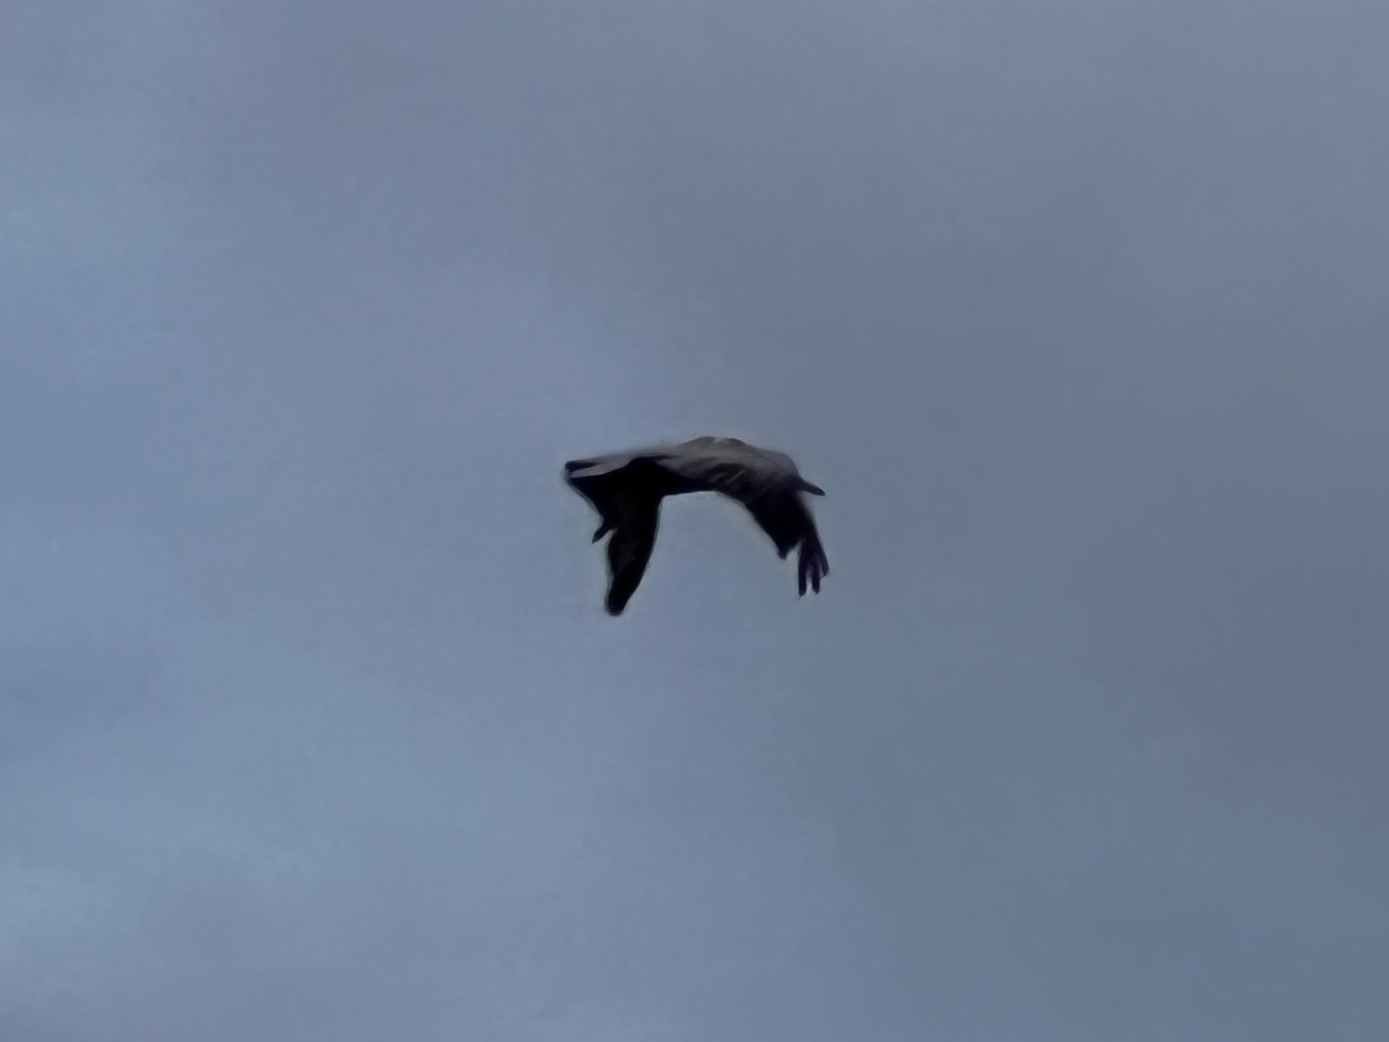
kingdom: Animalia
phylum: Chordata
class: Aves
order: Pelecaniformes
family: Pelecanidae
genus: Pelecanus
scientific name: Pelecanus occidentalis
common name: Brown pelican
